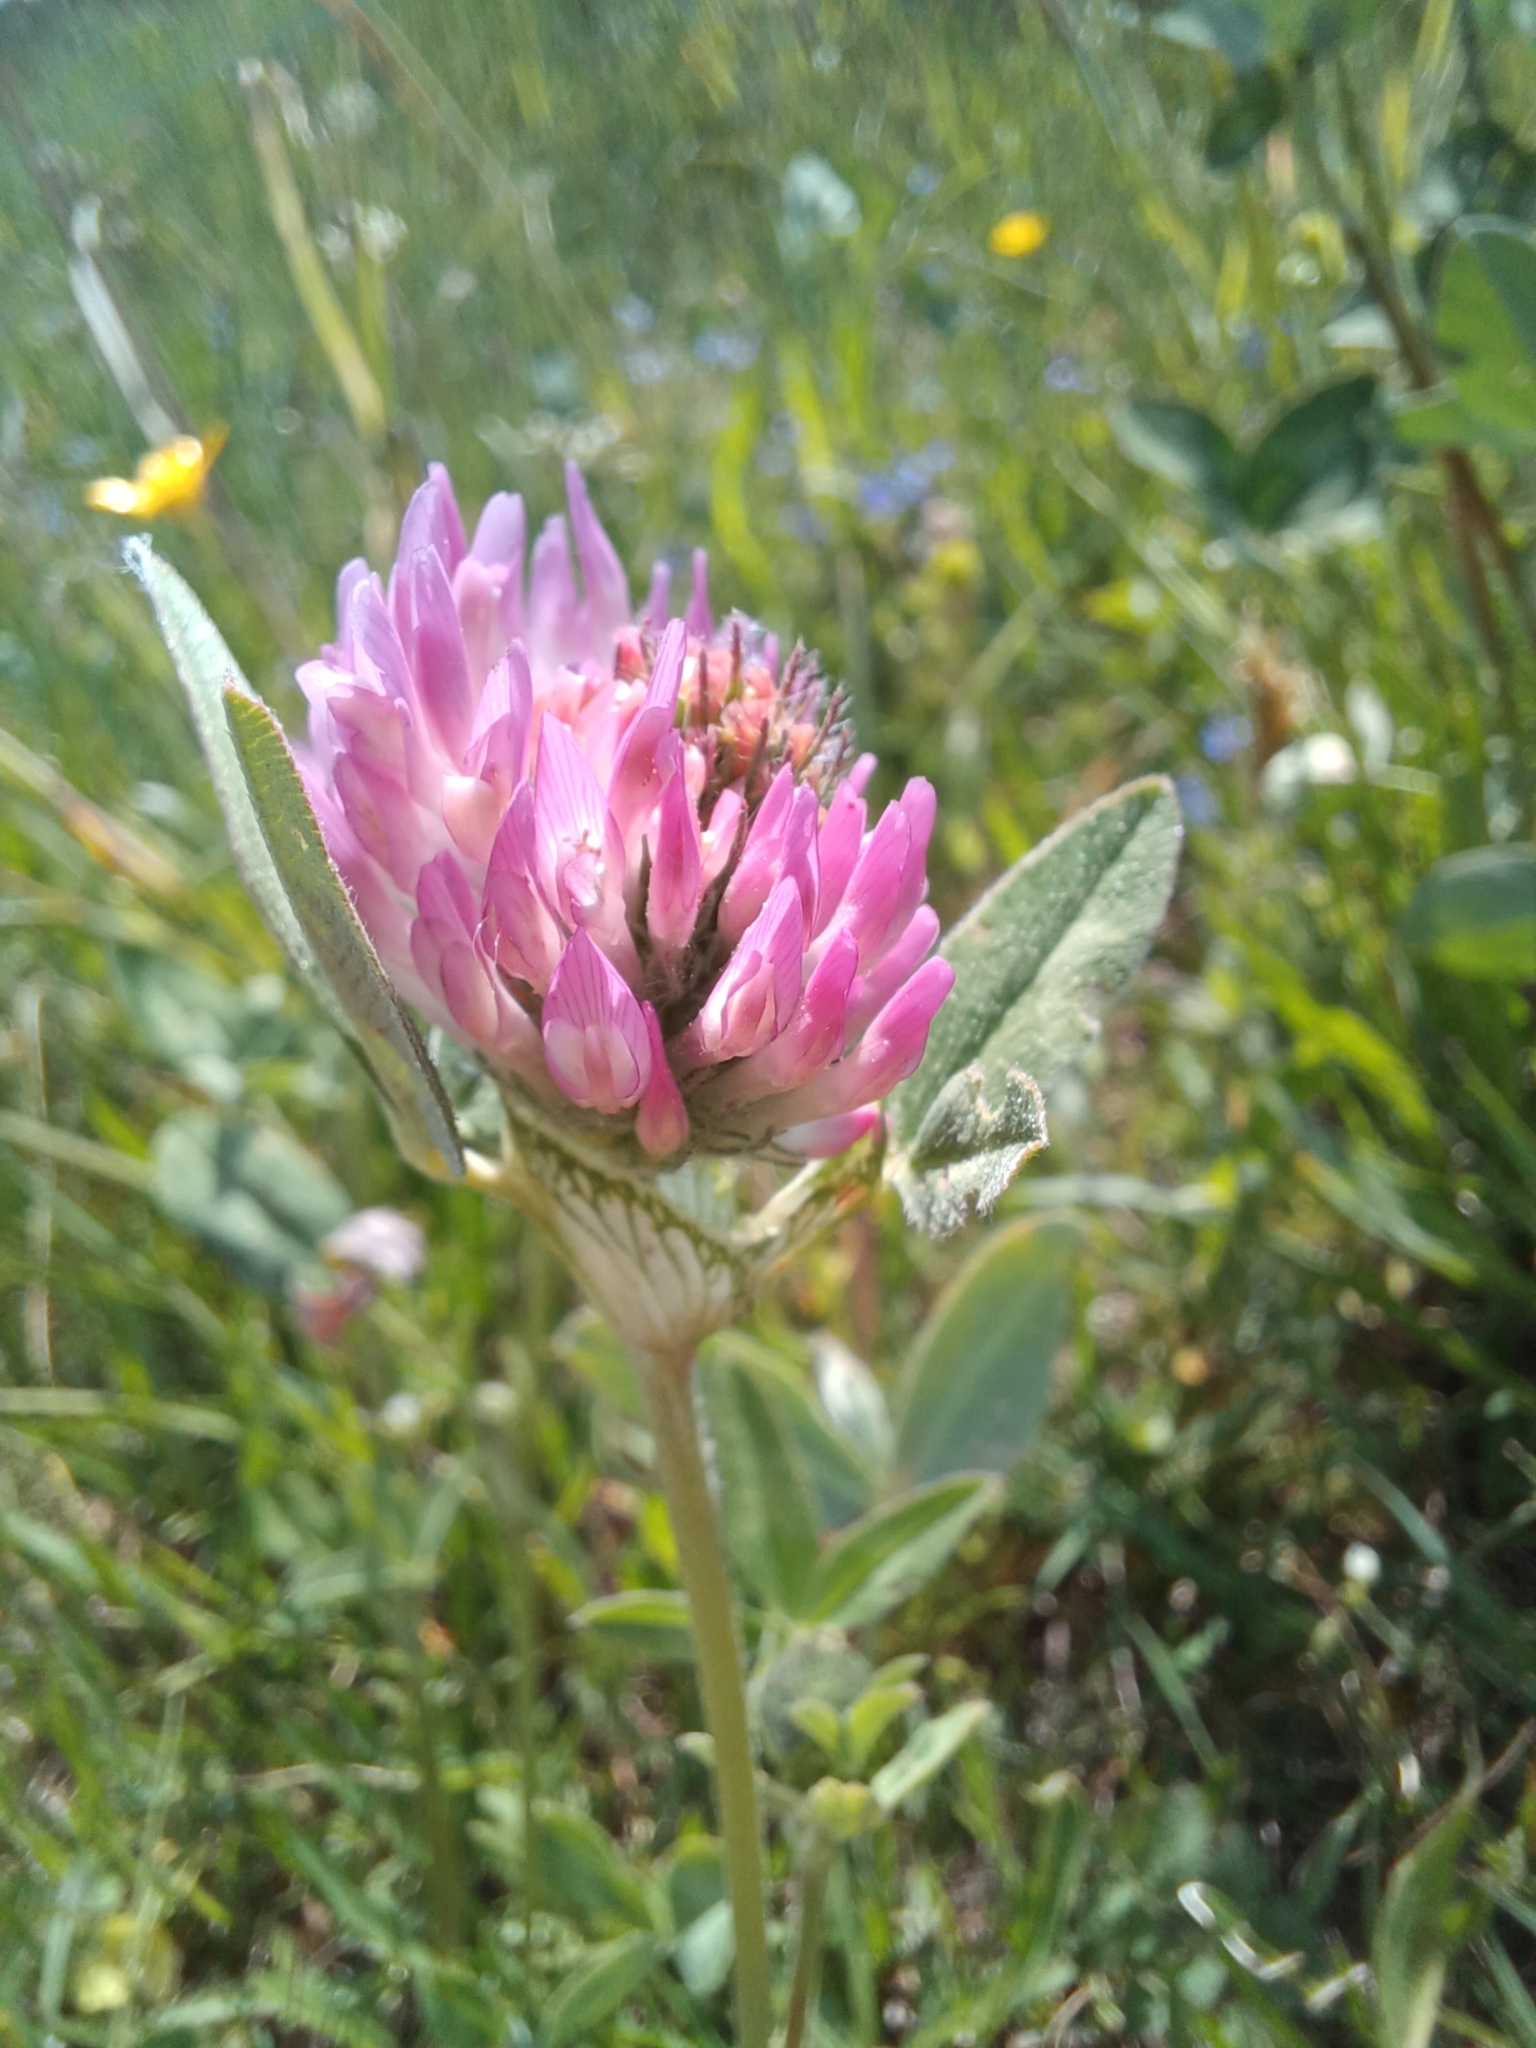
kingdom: Plantae
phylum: Tracheophyta
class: Magnoliopsida
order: Fabales
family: Fabaceae
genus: Trifolium
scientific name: Trifolium pratense
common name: Red clover
